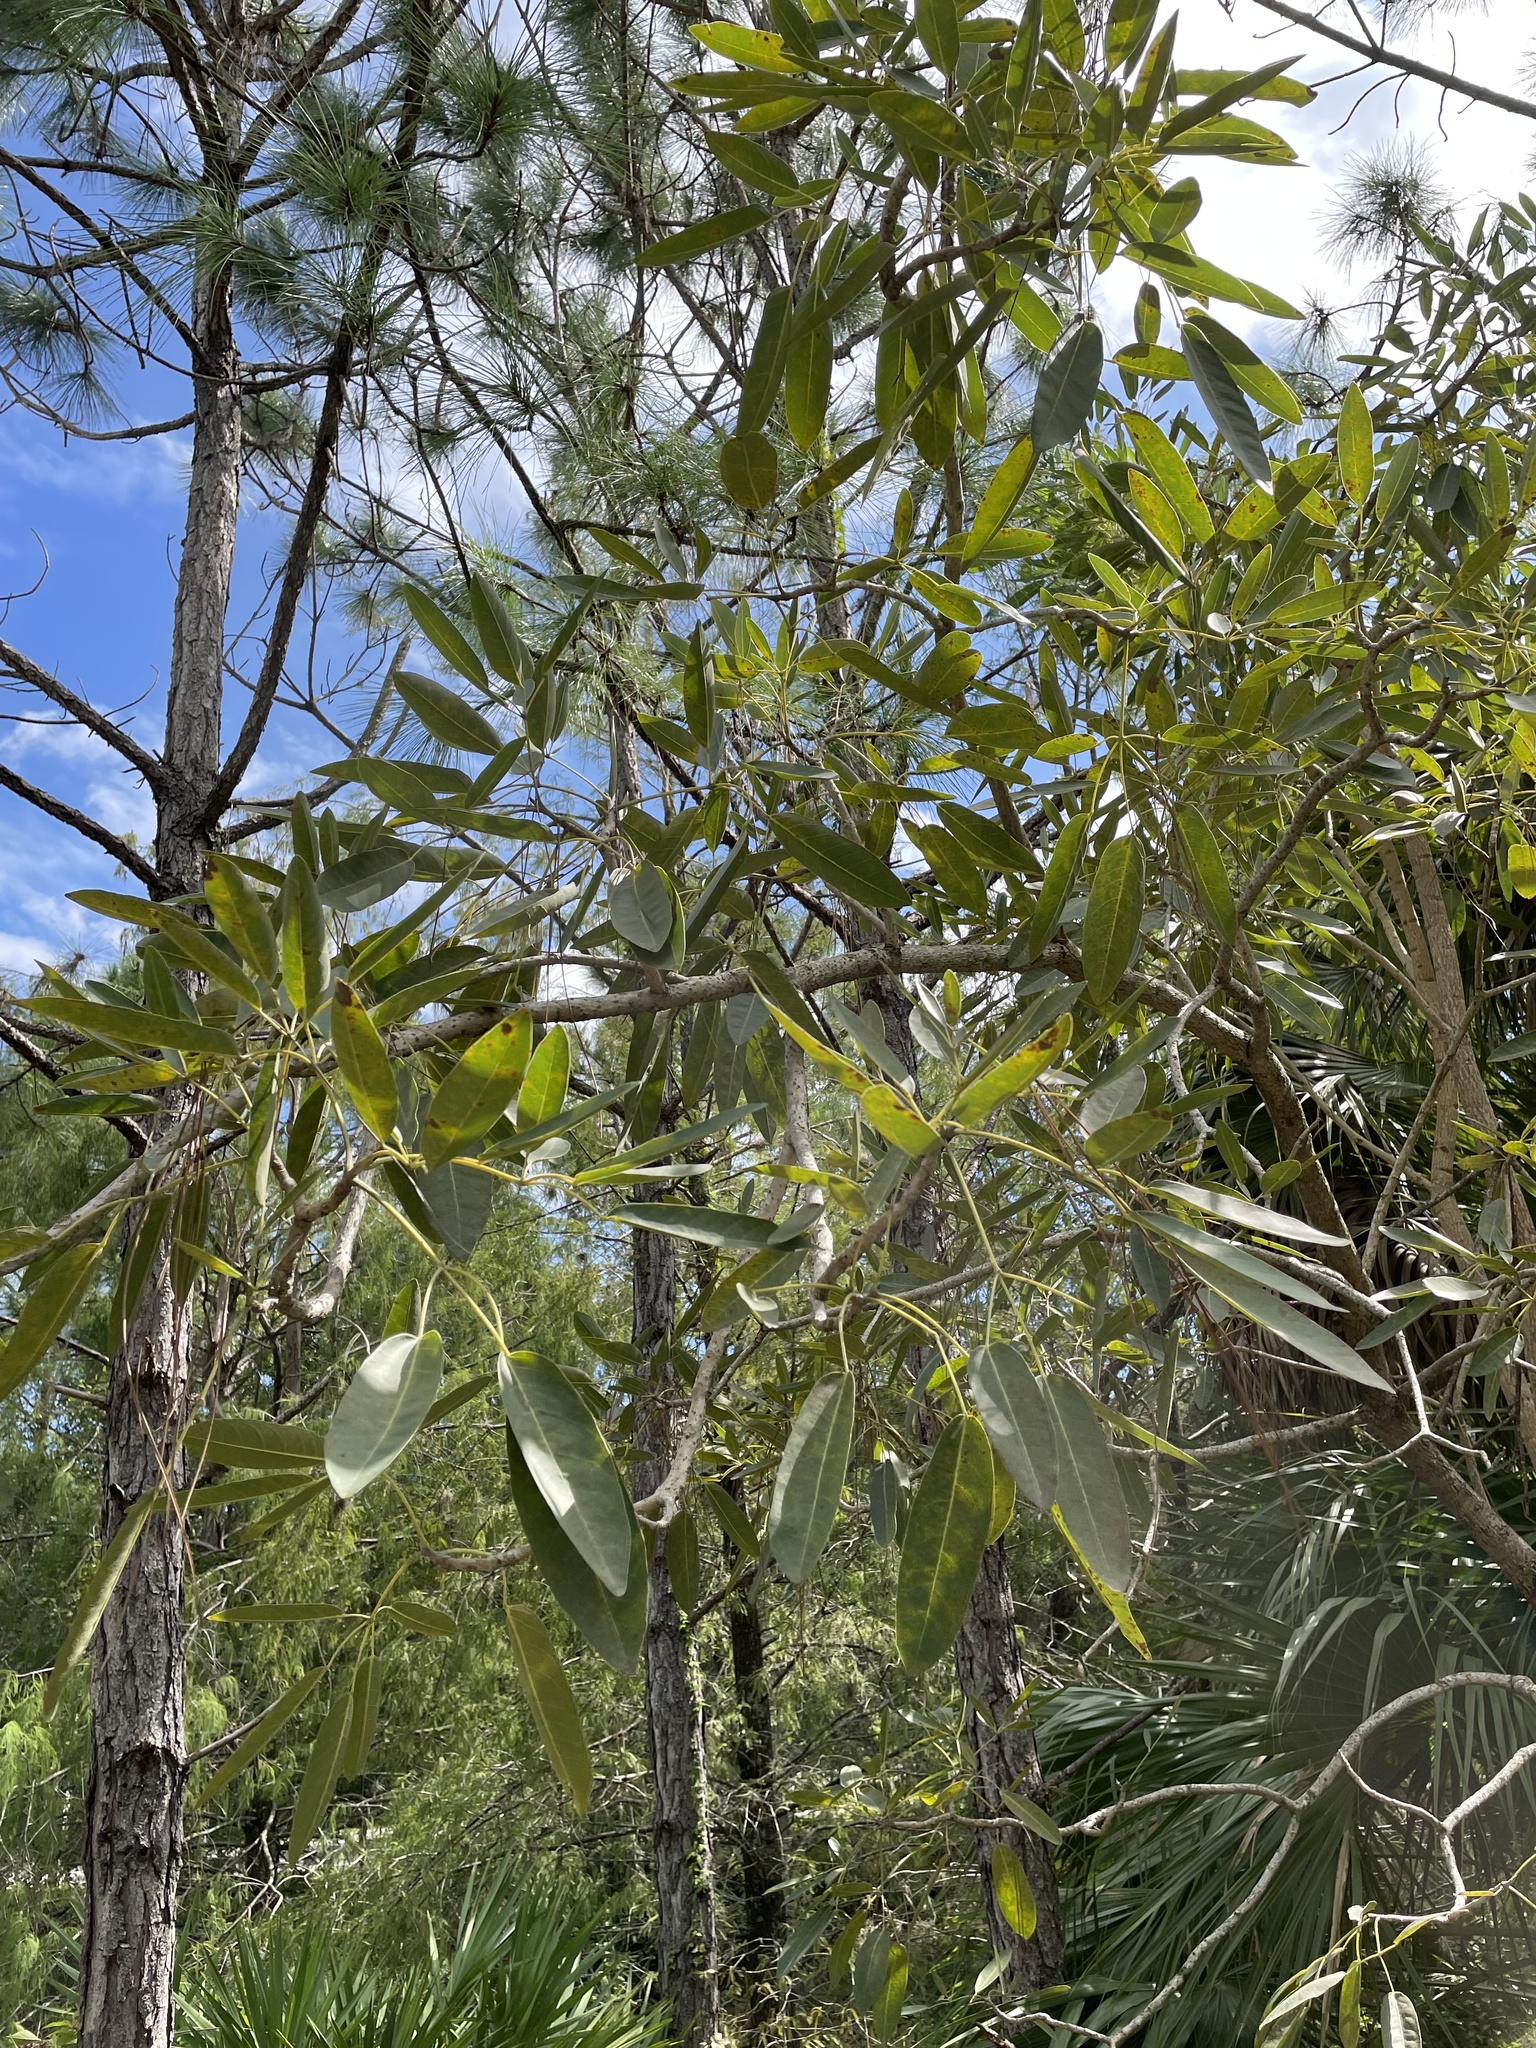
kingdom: Plantae
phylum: Tracheophyta
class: Pinopsida
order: Pinales
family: Cupressaceae
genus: Taxodium
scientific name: Taxodium distichum
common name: Bald cypress
